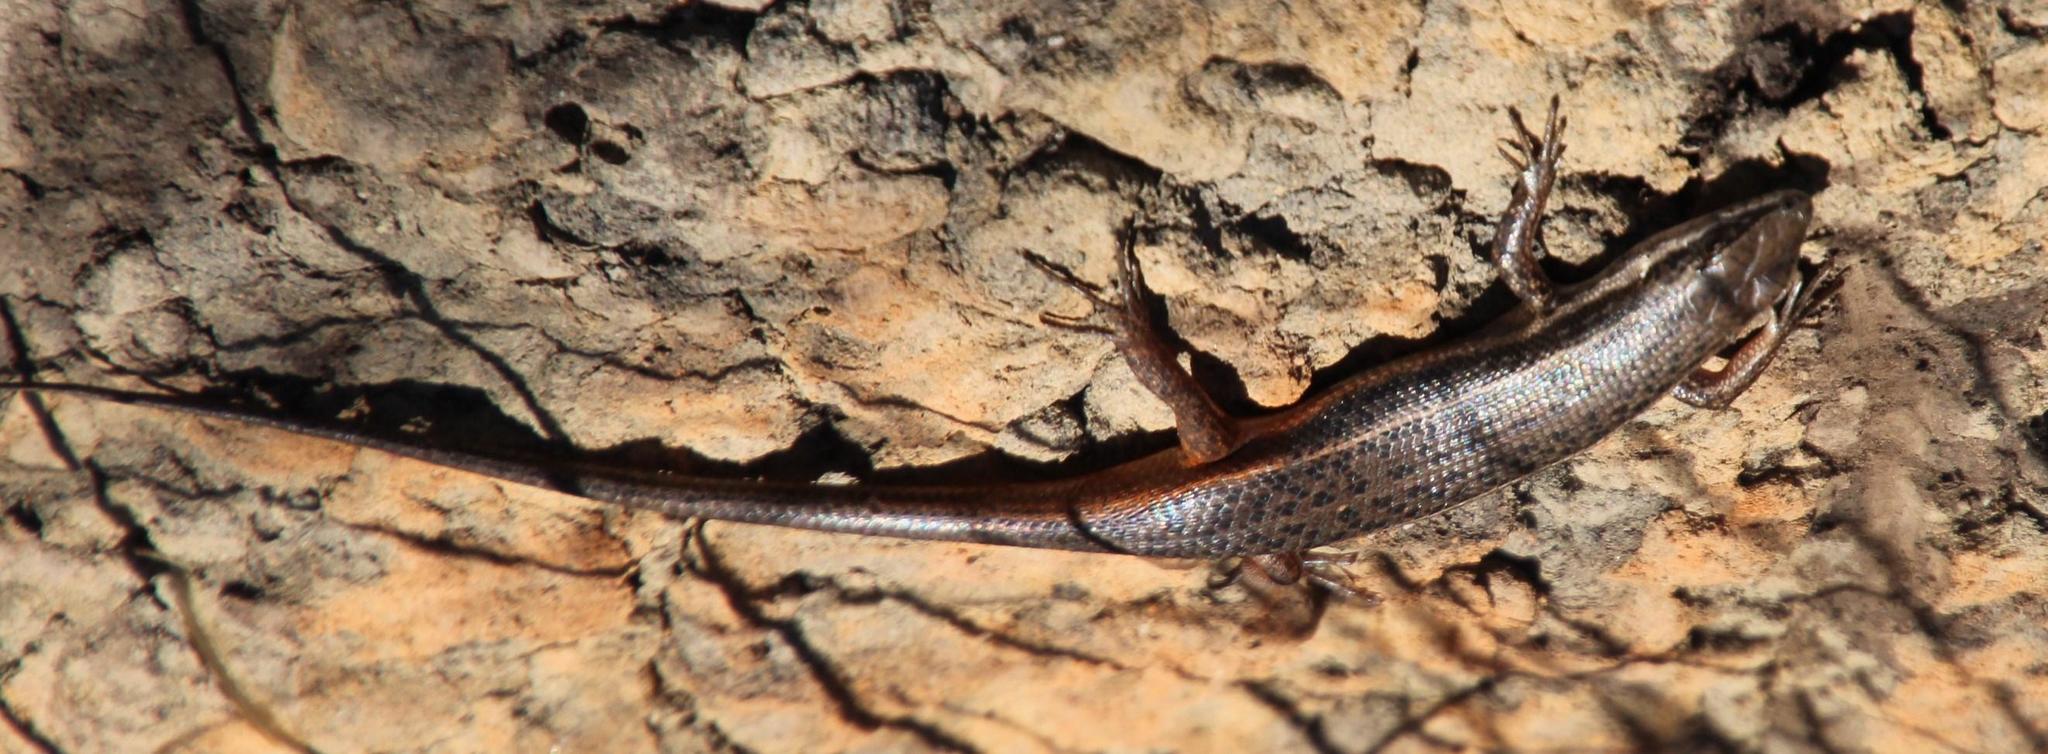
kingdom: Animalia
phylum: Chordata
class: Squamata
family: Scincidae
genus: Trachylepis
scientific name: Trachylepis variegata
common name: Variegated skink
